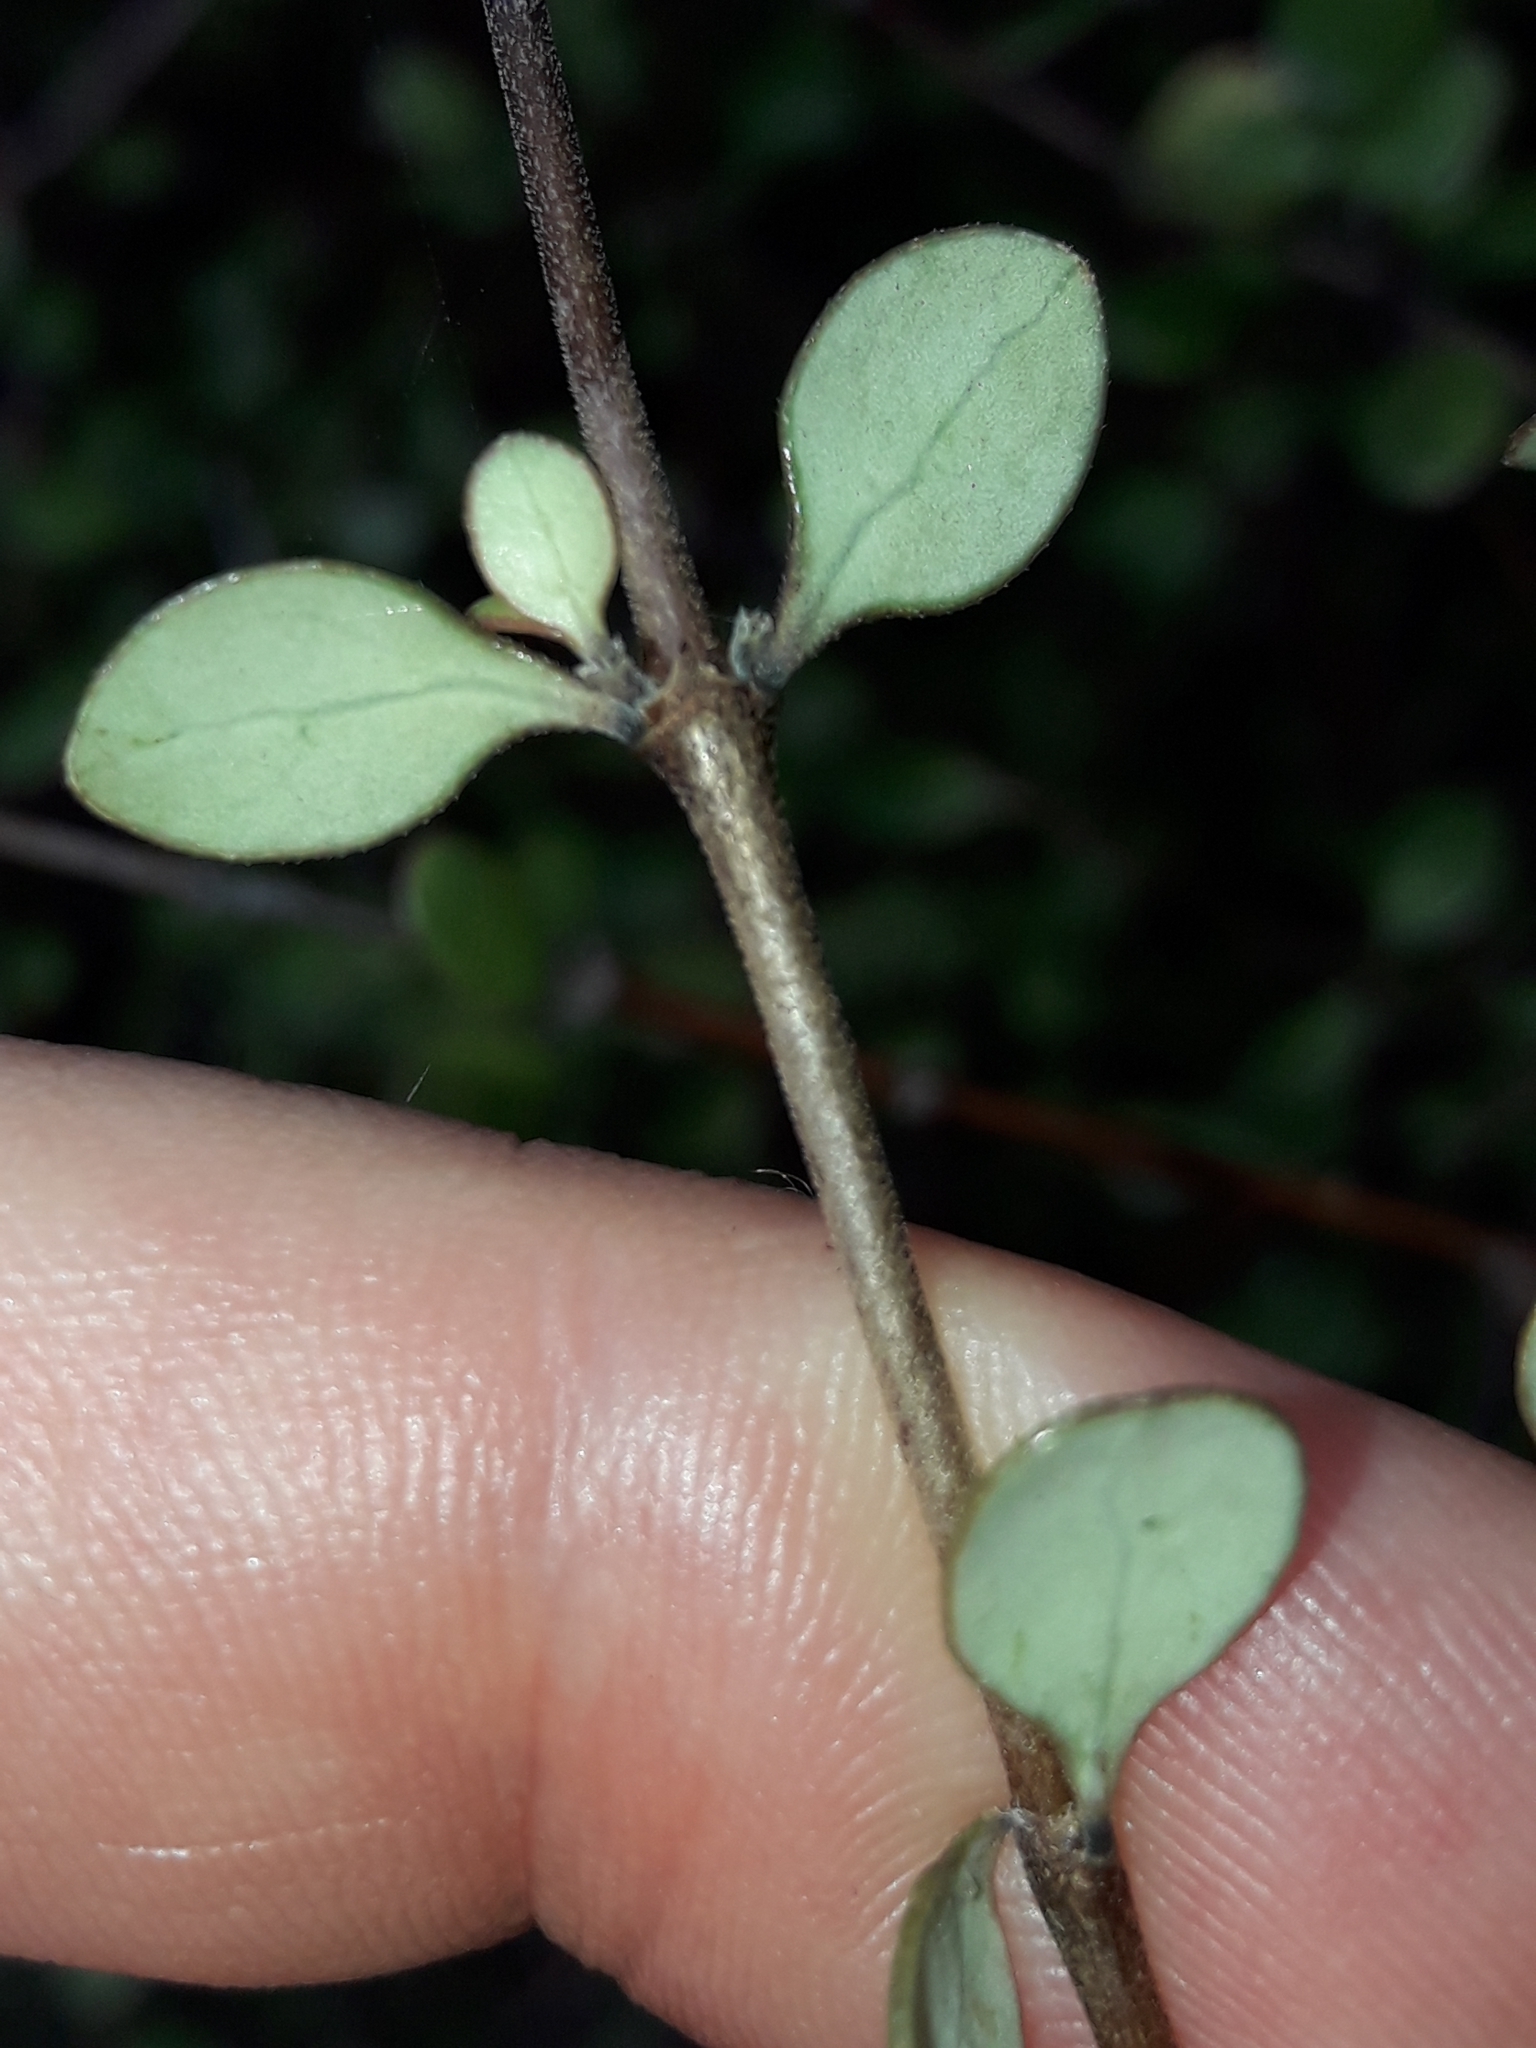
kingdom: Plantae
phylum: Tracheophyta
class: Magnoliopsida
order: Gentianales
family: Rubiaceae
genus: Coprosma
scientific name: Coprosma crassifolia
